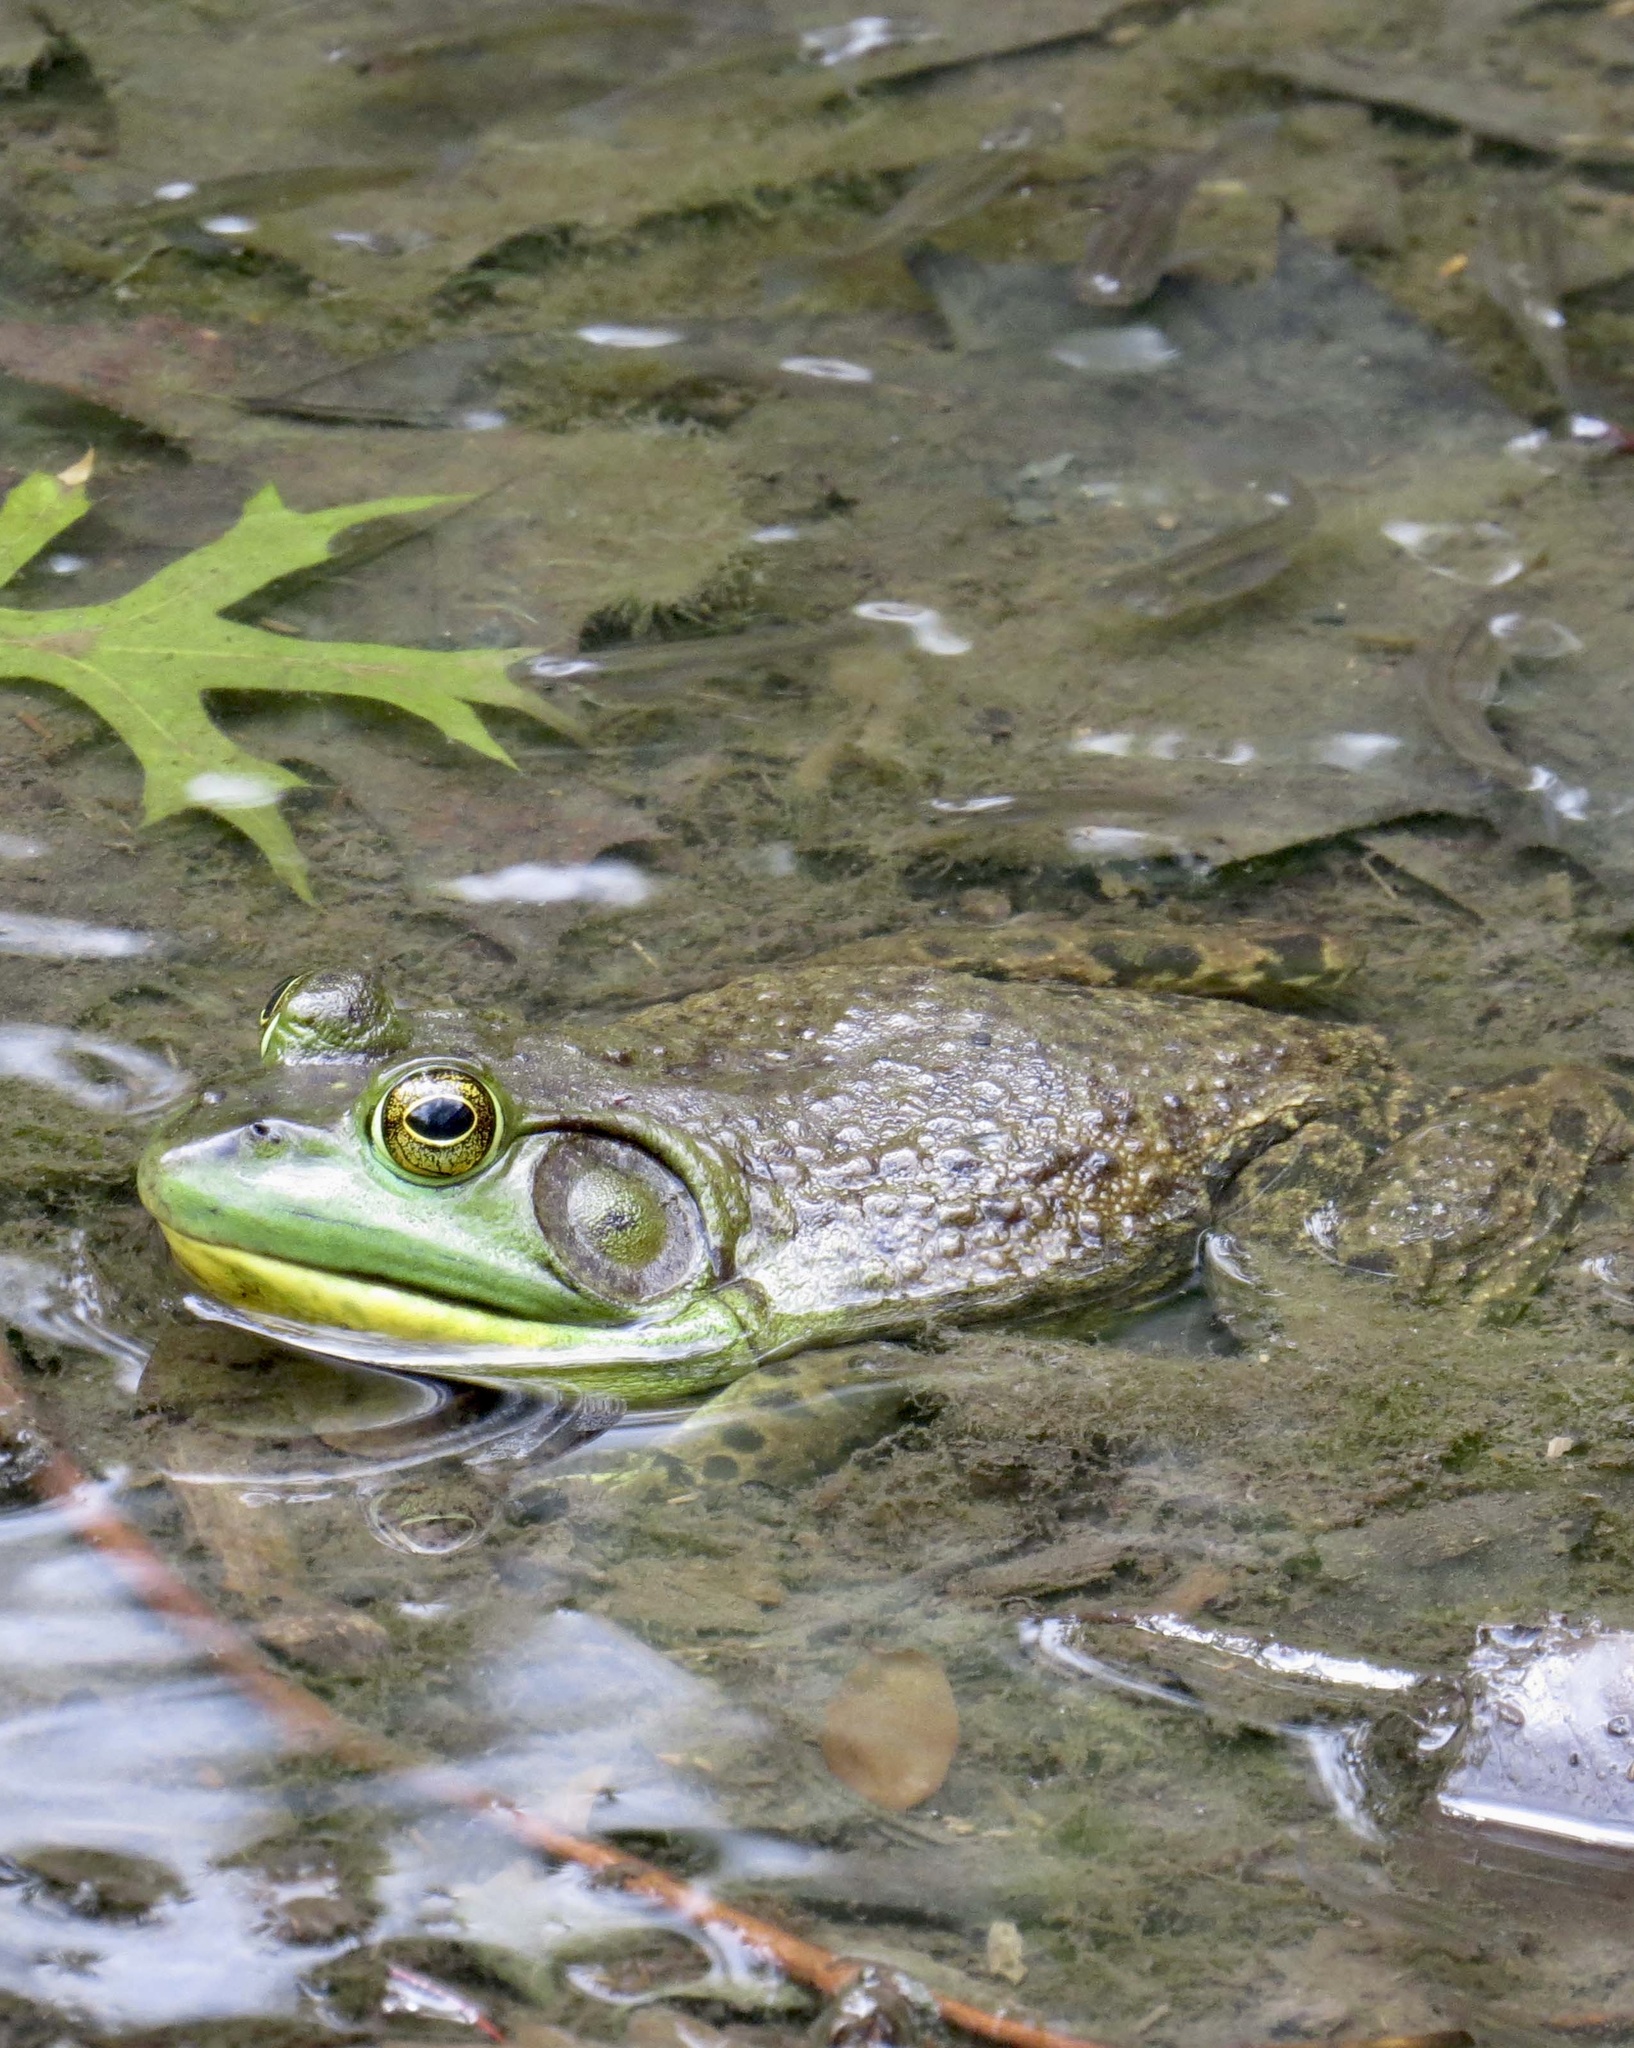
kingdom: Animalia
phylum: Chordata
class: Amphibia
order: Anura
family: Ranidae
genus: Lithobates
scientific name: Lithobates catesbeianus
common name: American bullfrog
